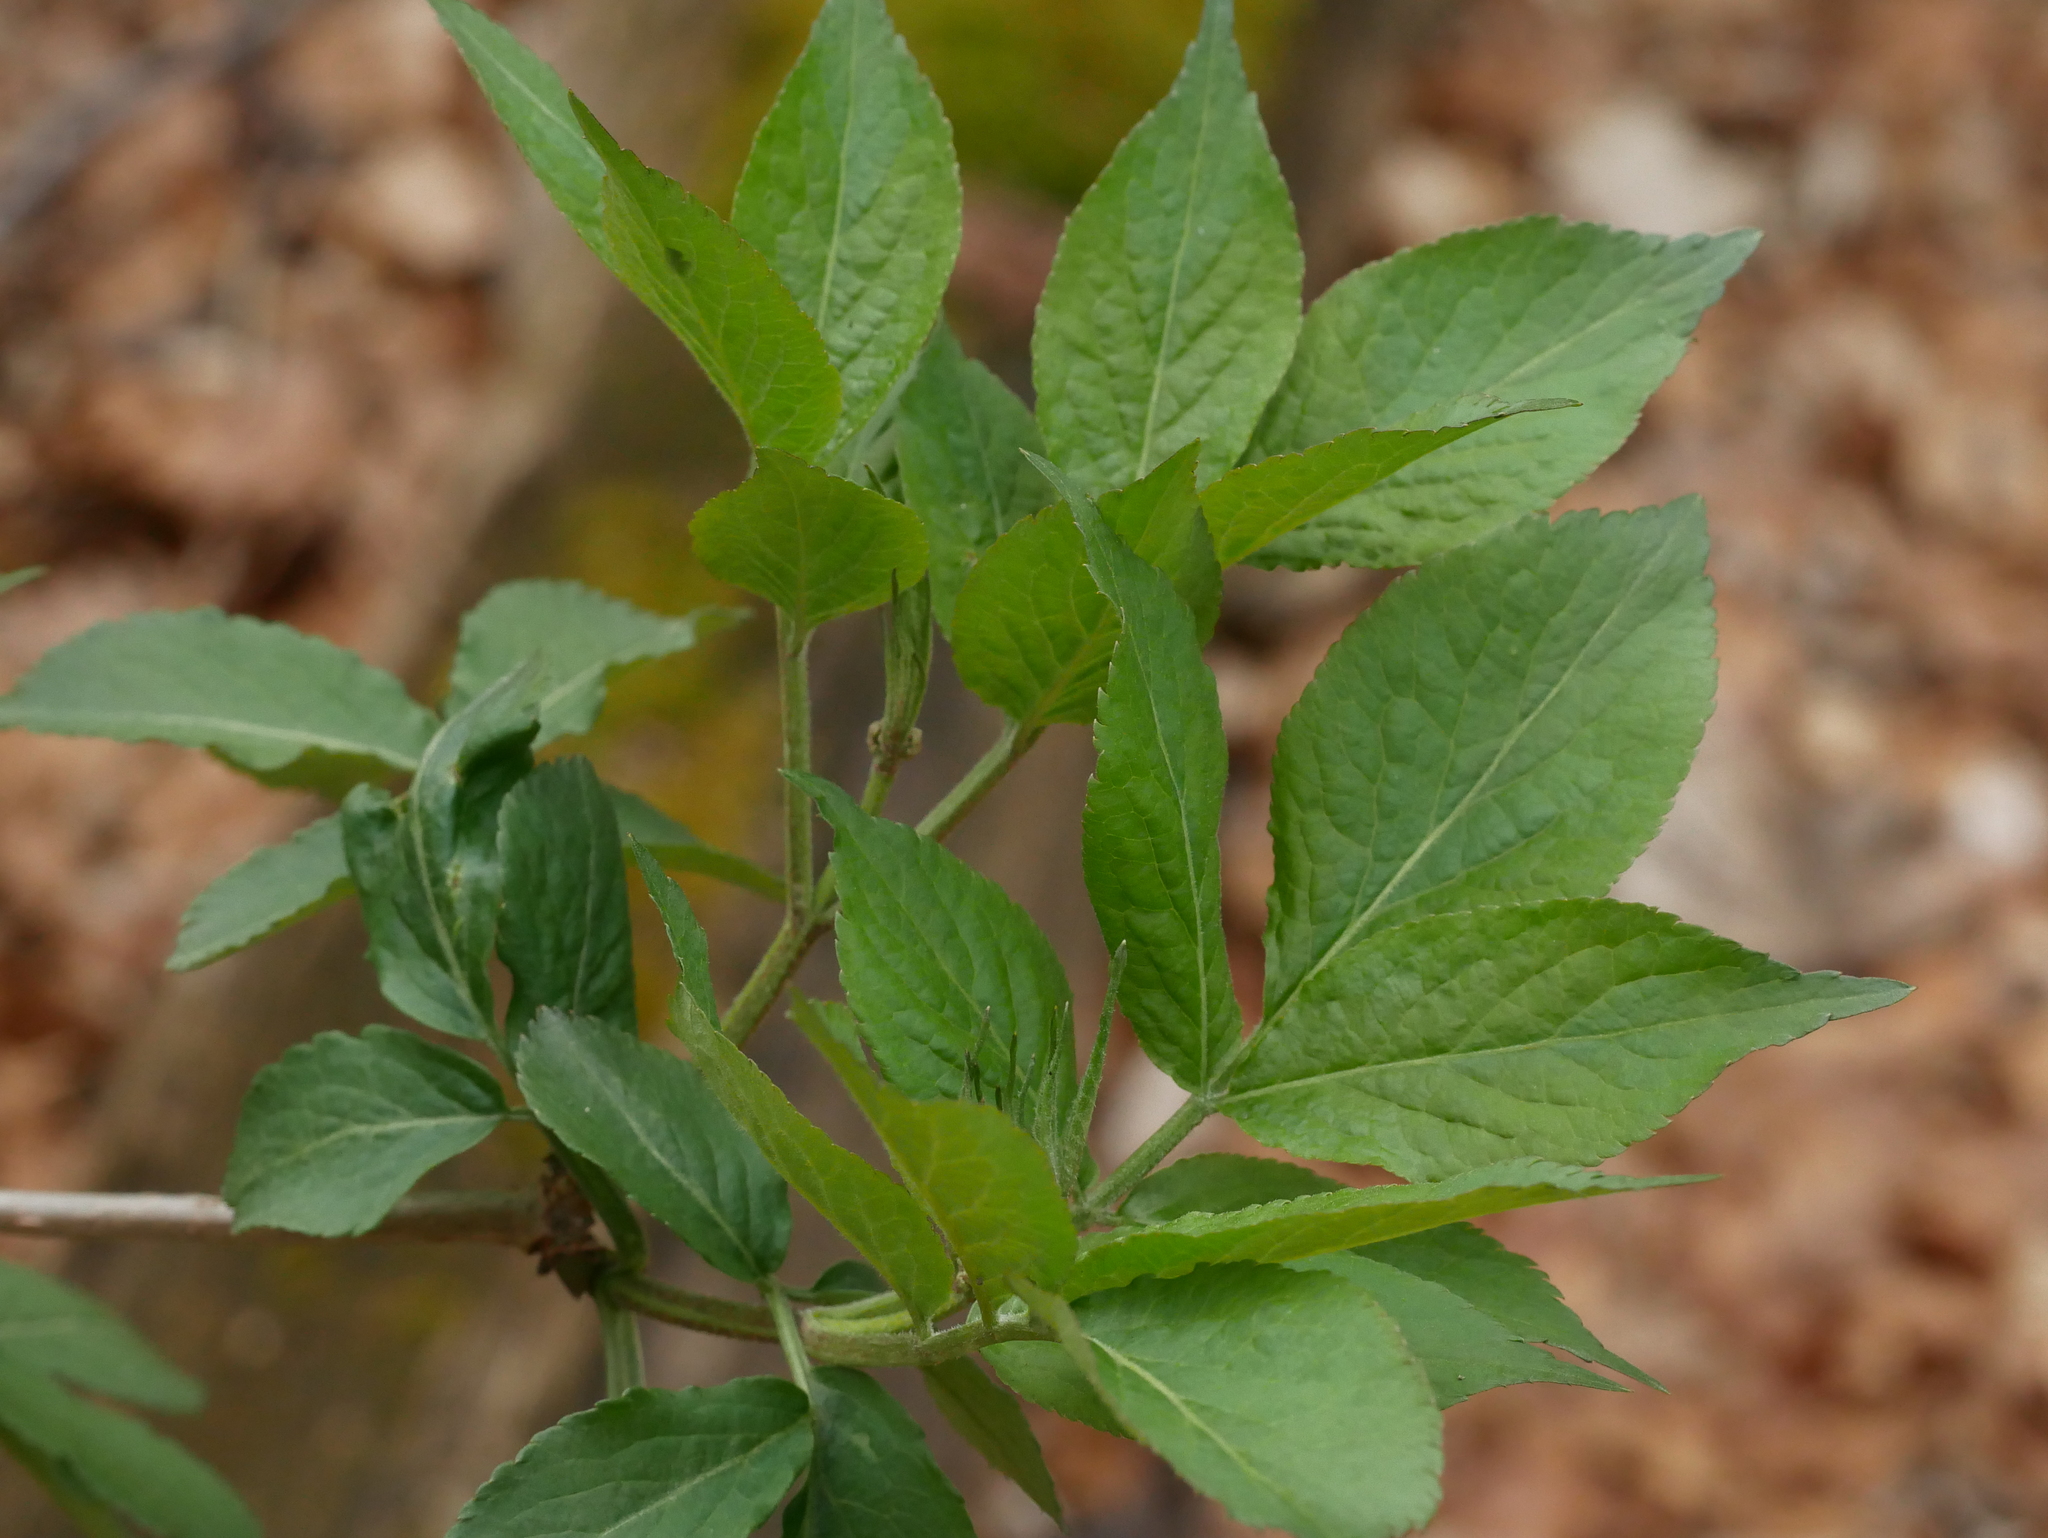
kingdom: Plantae
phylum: Tracheophyta
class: Magnoliopsida
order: Dipsacales
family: Viburnaceae
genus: Sambucus
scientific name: Sambucus nigra
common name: Elder
